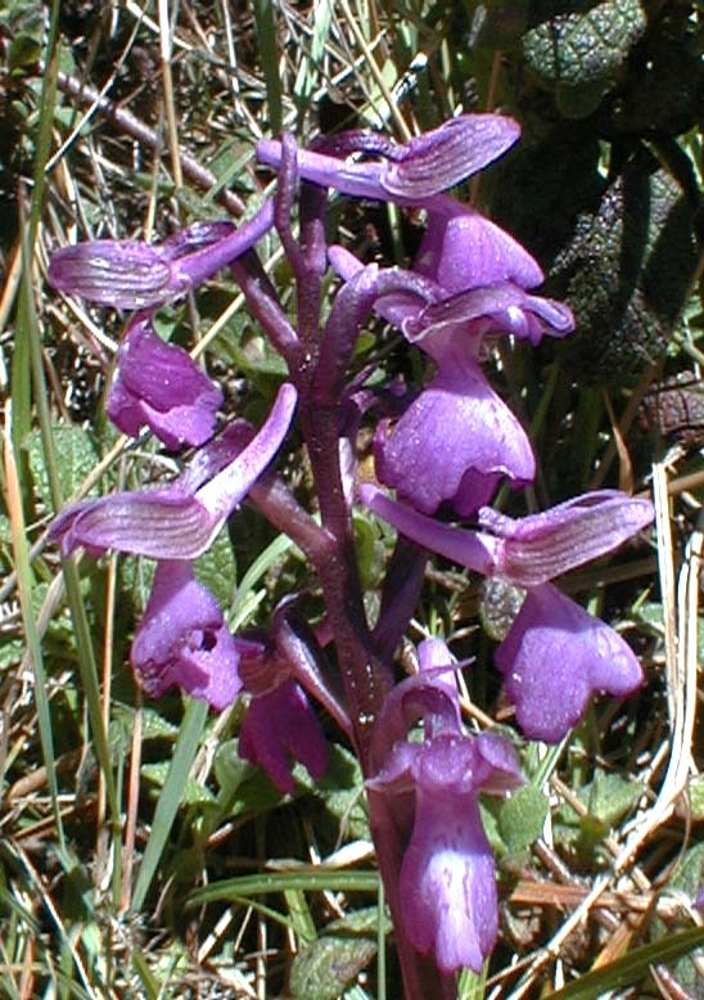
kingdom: Plantae
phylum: Tracheophyta
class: Liliopsida
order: Asparagales
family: Orchidaceae
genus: Anacamptis
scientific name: Anacamptis morio
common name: Green-winged orchid
